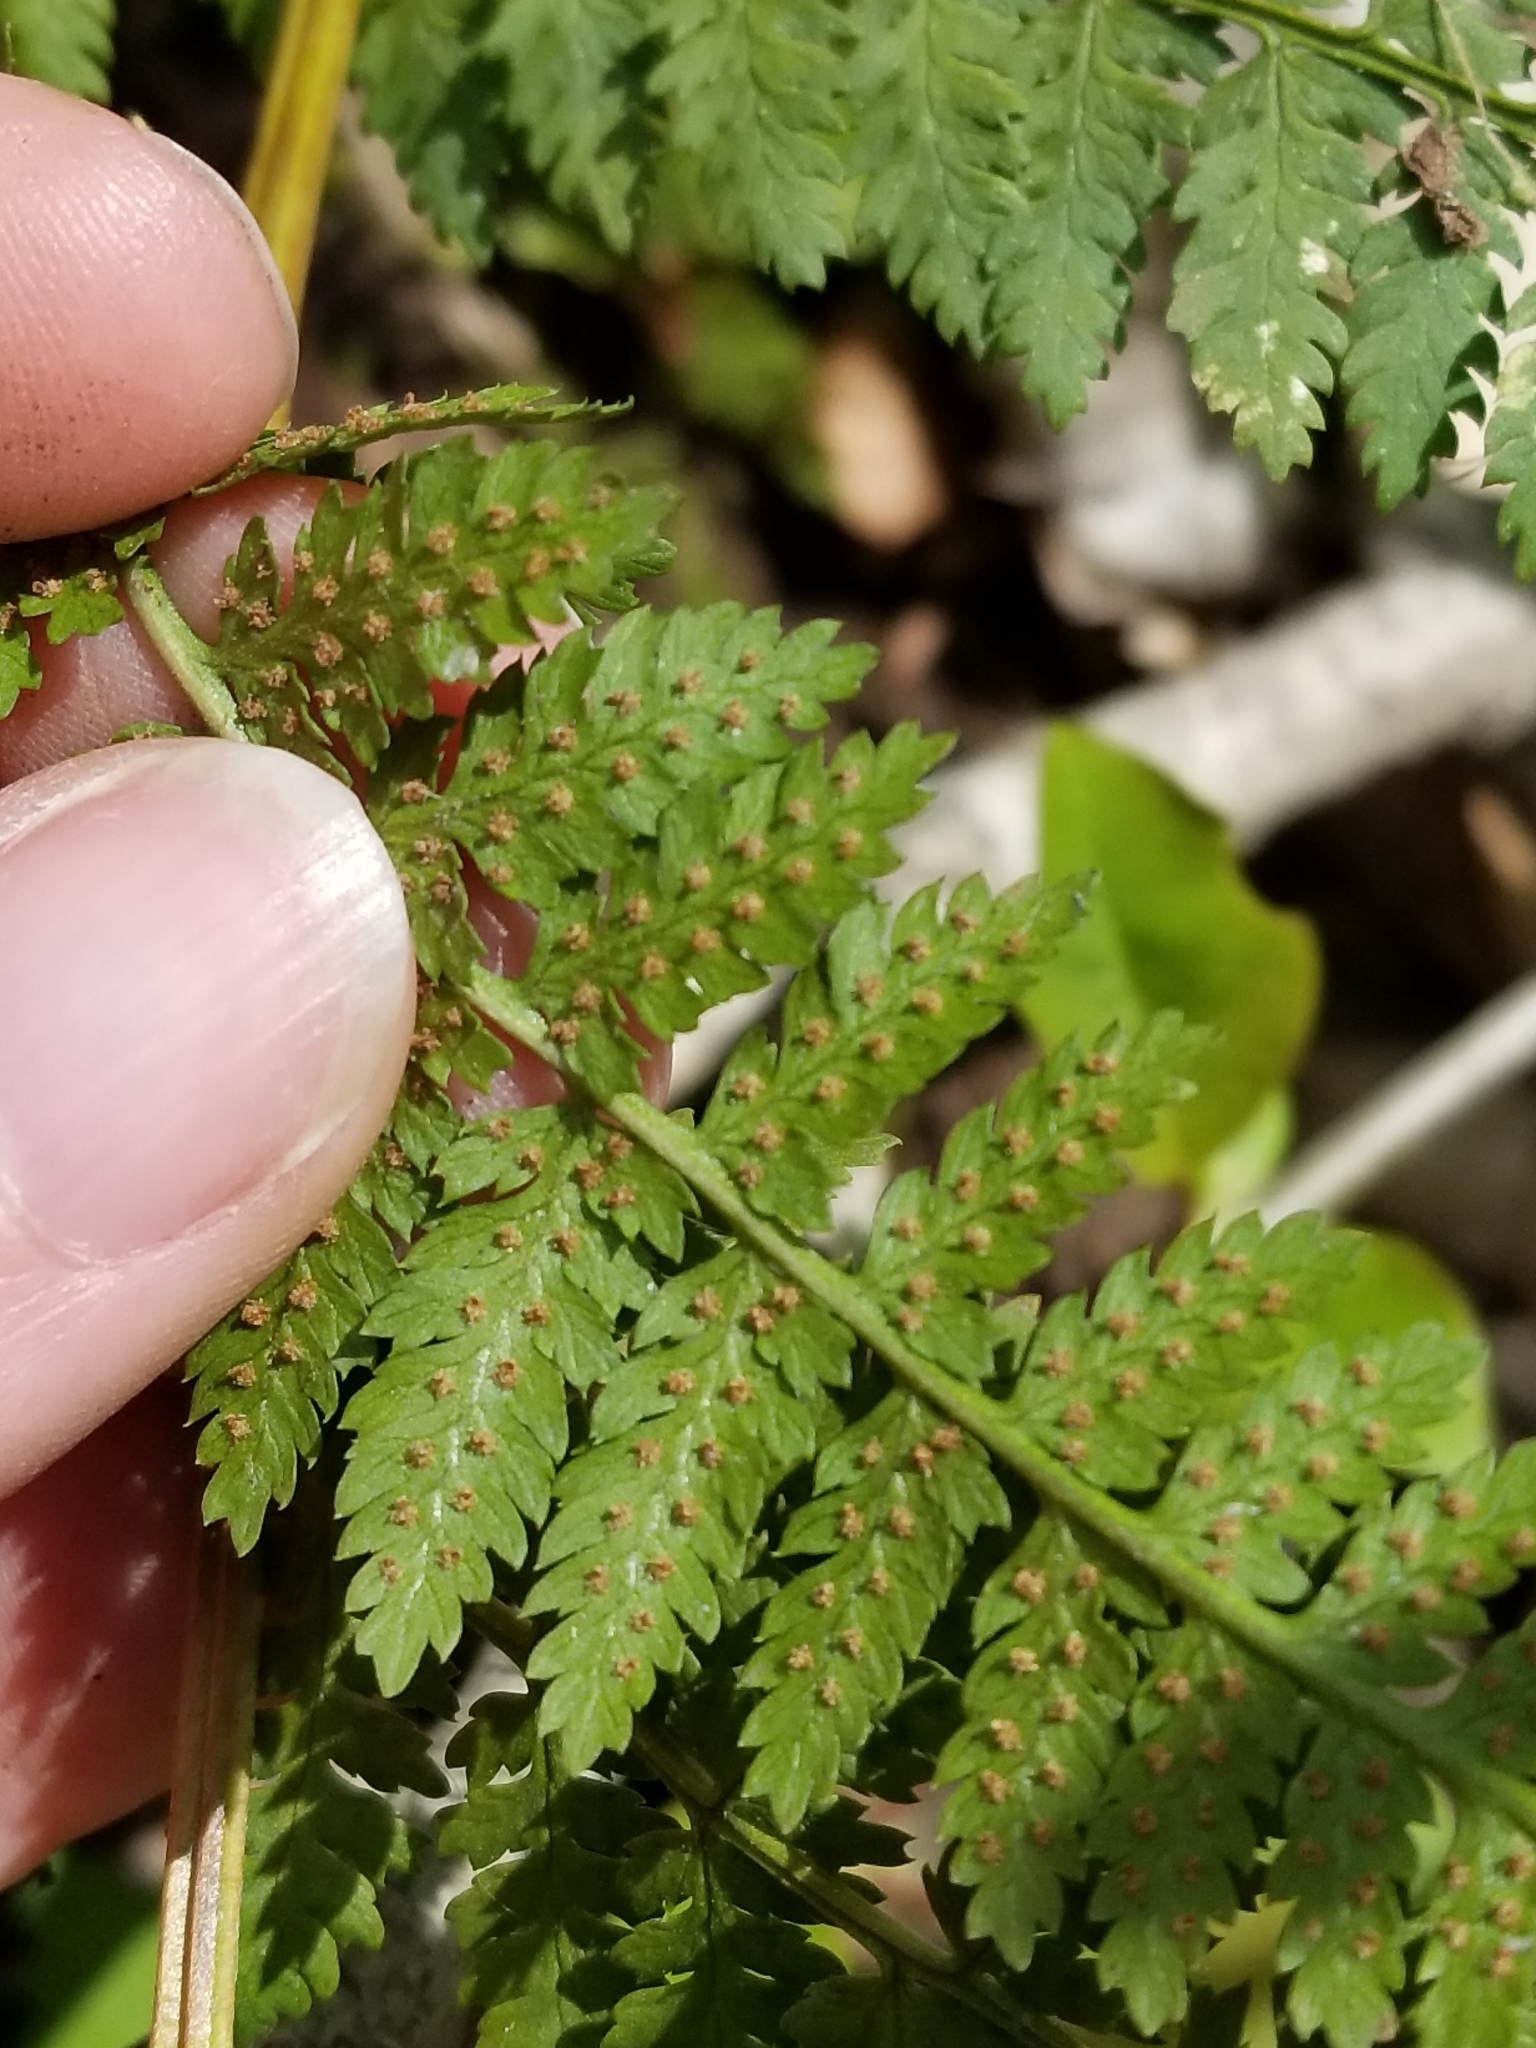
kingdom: Plantae
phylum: Tracheophyta
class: Polypodiopsida
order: Polypodiales
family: Dryopteridaceae
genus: Dryopteris
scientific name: Dryopteris intermedia
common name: Evergreen wood fern
